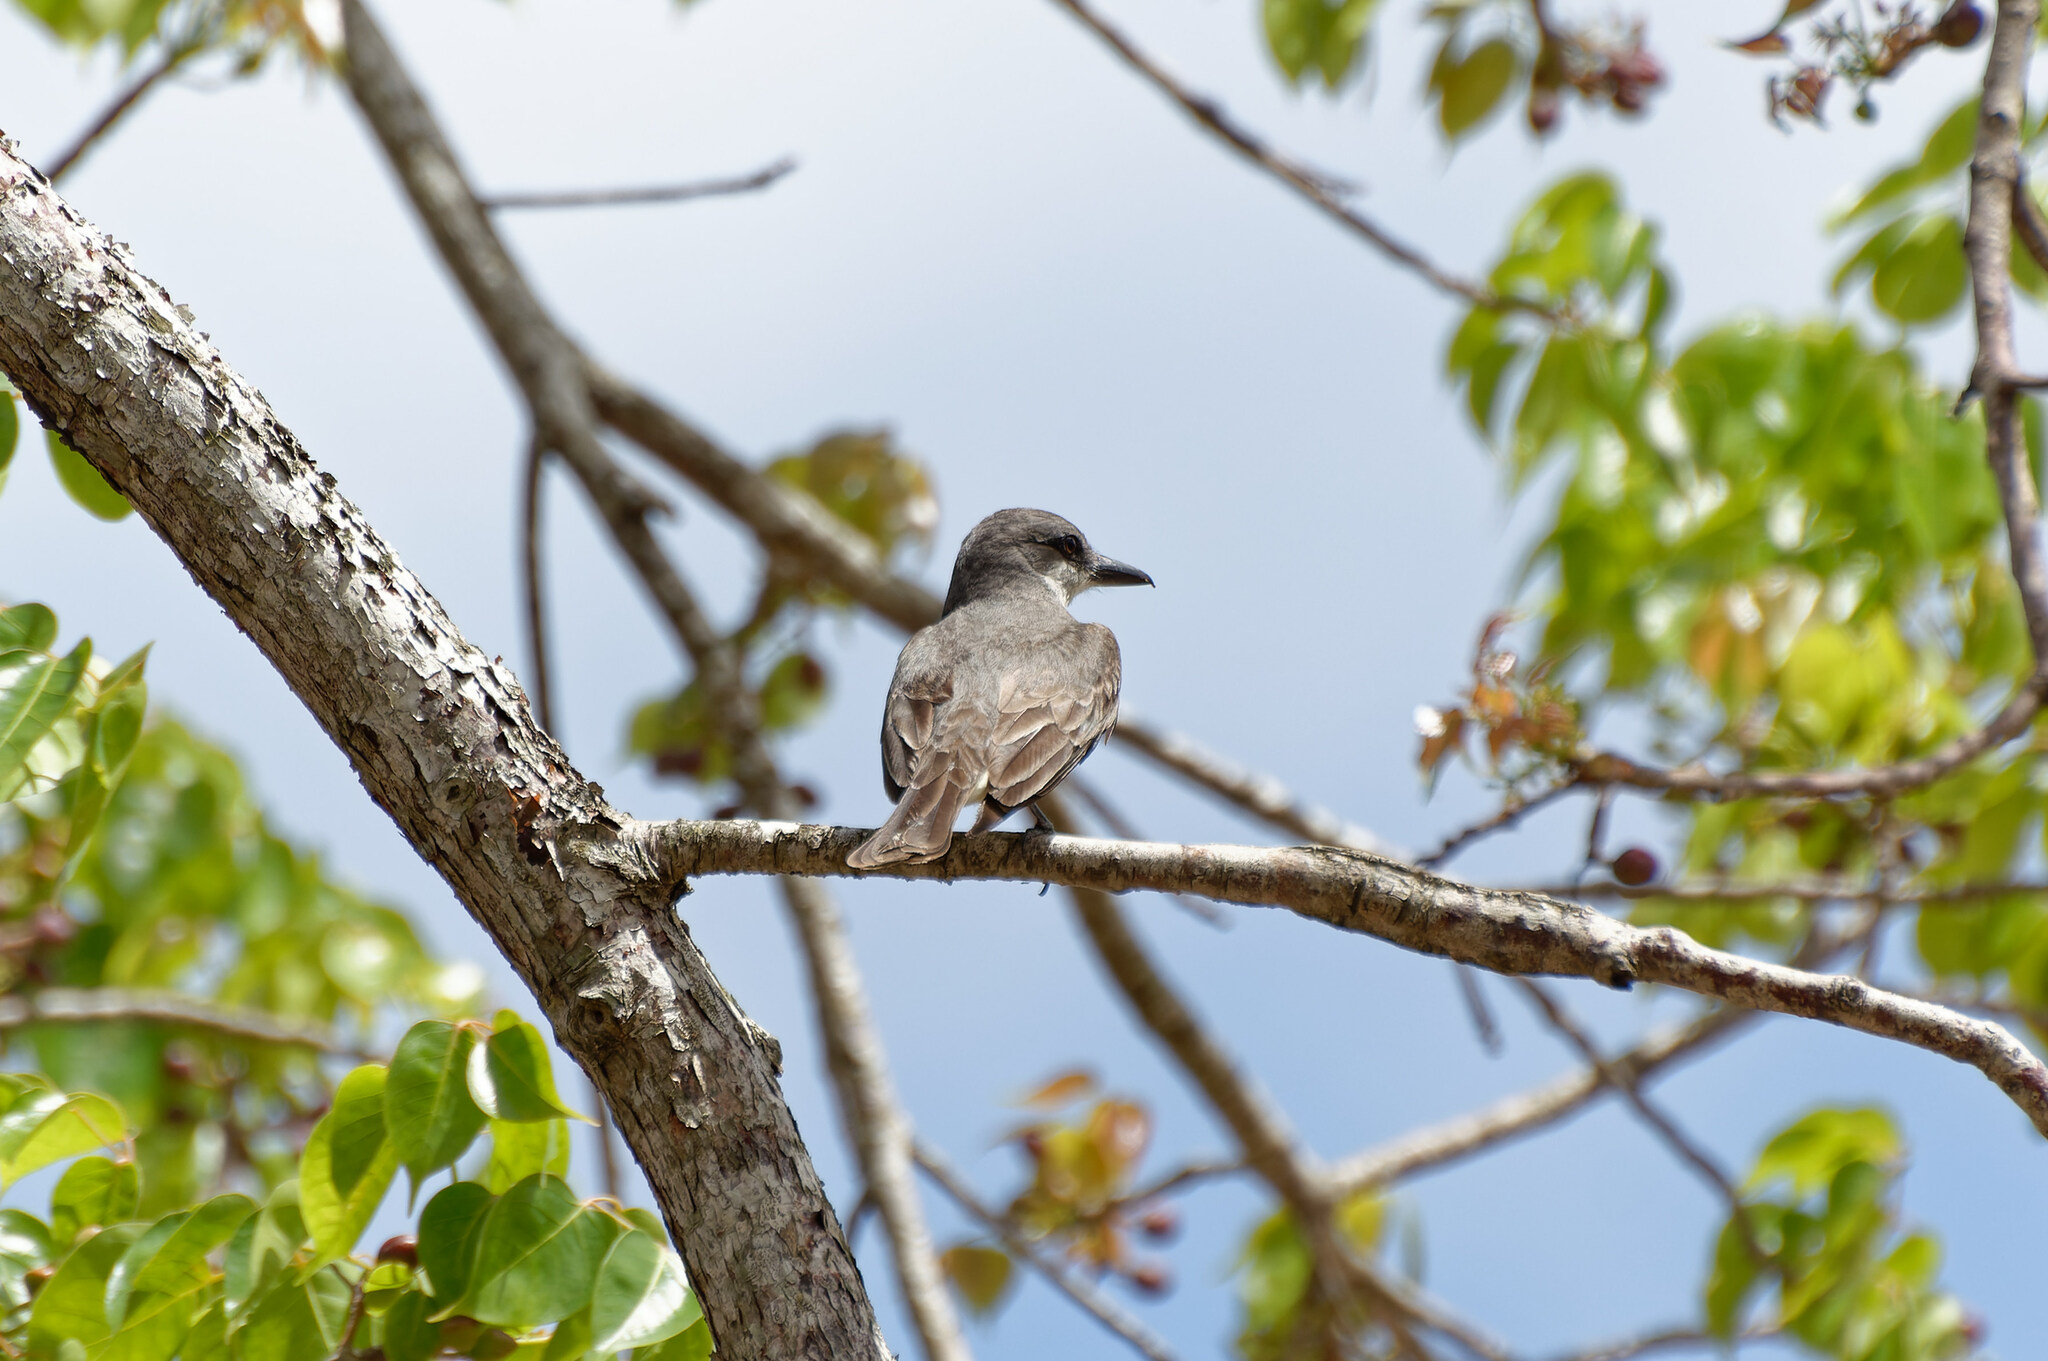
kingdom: Animalia
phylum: Chordata
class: Aves
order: Passeriformes
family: Tyrannidae
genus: Tyrannus
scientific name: Tyrannus dominicensis
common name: Gray kingbird
